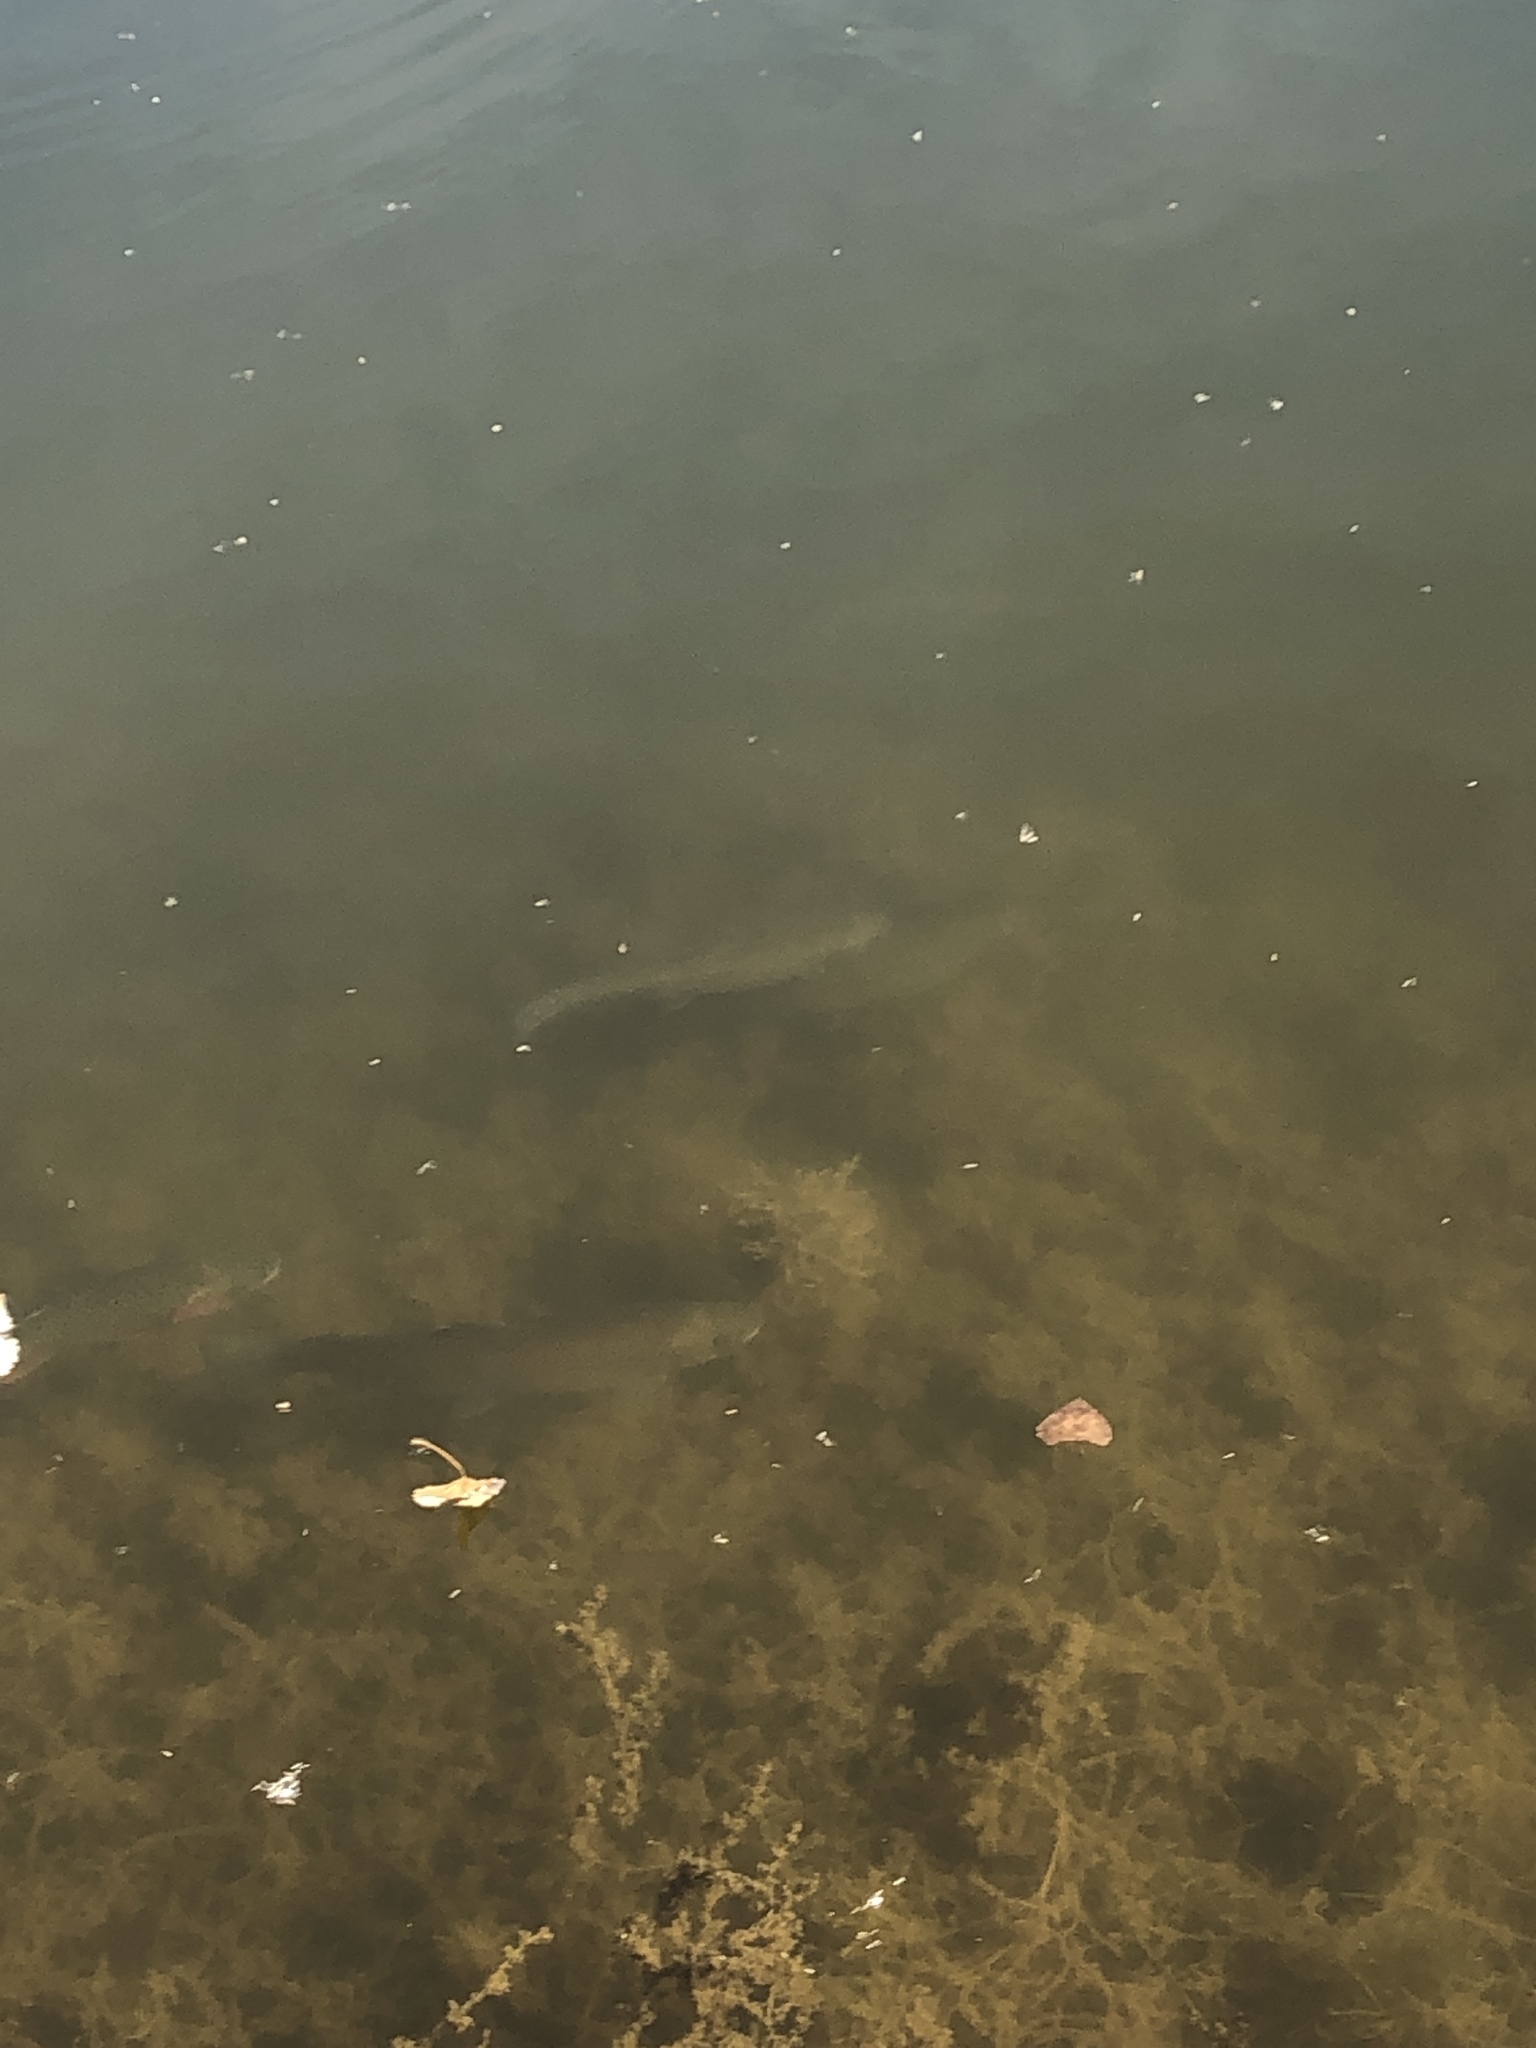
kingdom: Animalia
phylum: Chordata
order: Salmoniformes
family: Salmonidae
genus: Oncorhynchus
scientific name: Oncorhynchus mykiss
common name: Rainbow trout
